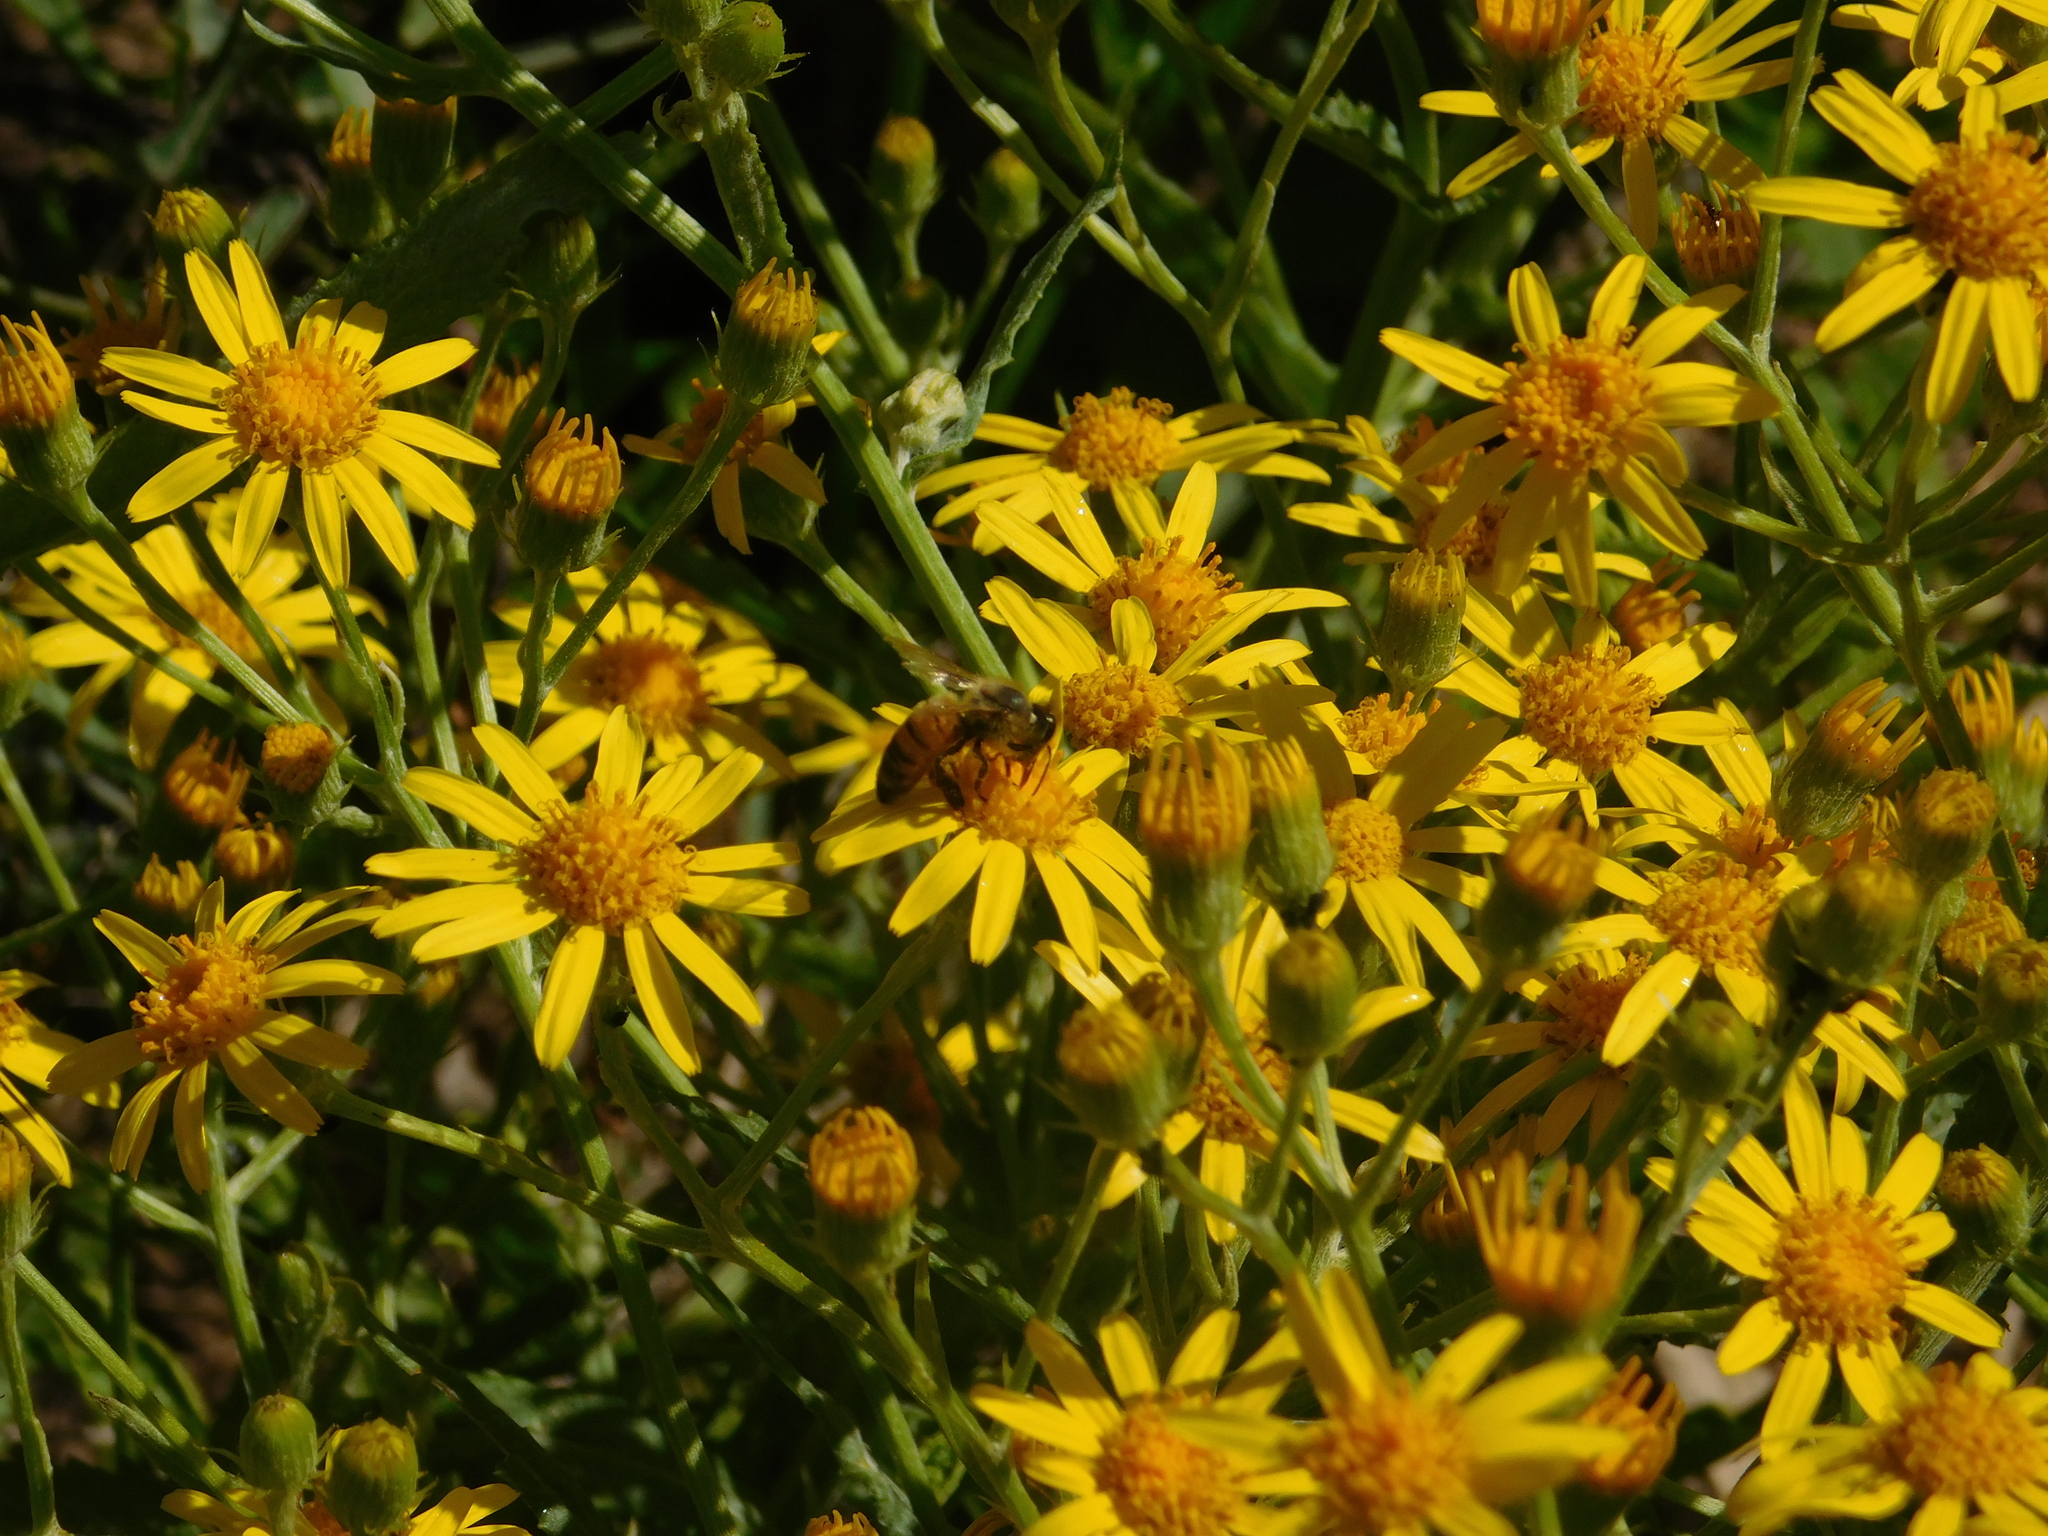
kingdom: Animalia
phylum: Arthropoda
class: Insecta
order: Hymenoptera
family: Apidae
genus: Apis
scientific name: Apis mellifera
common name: Honey bee
